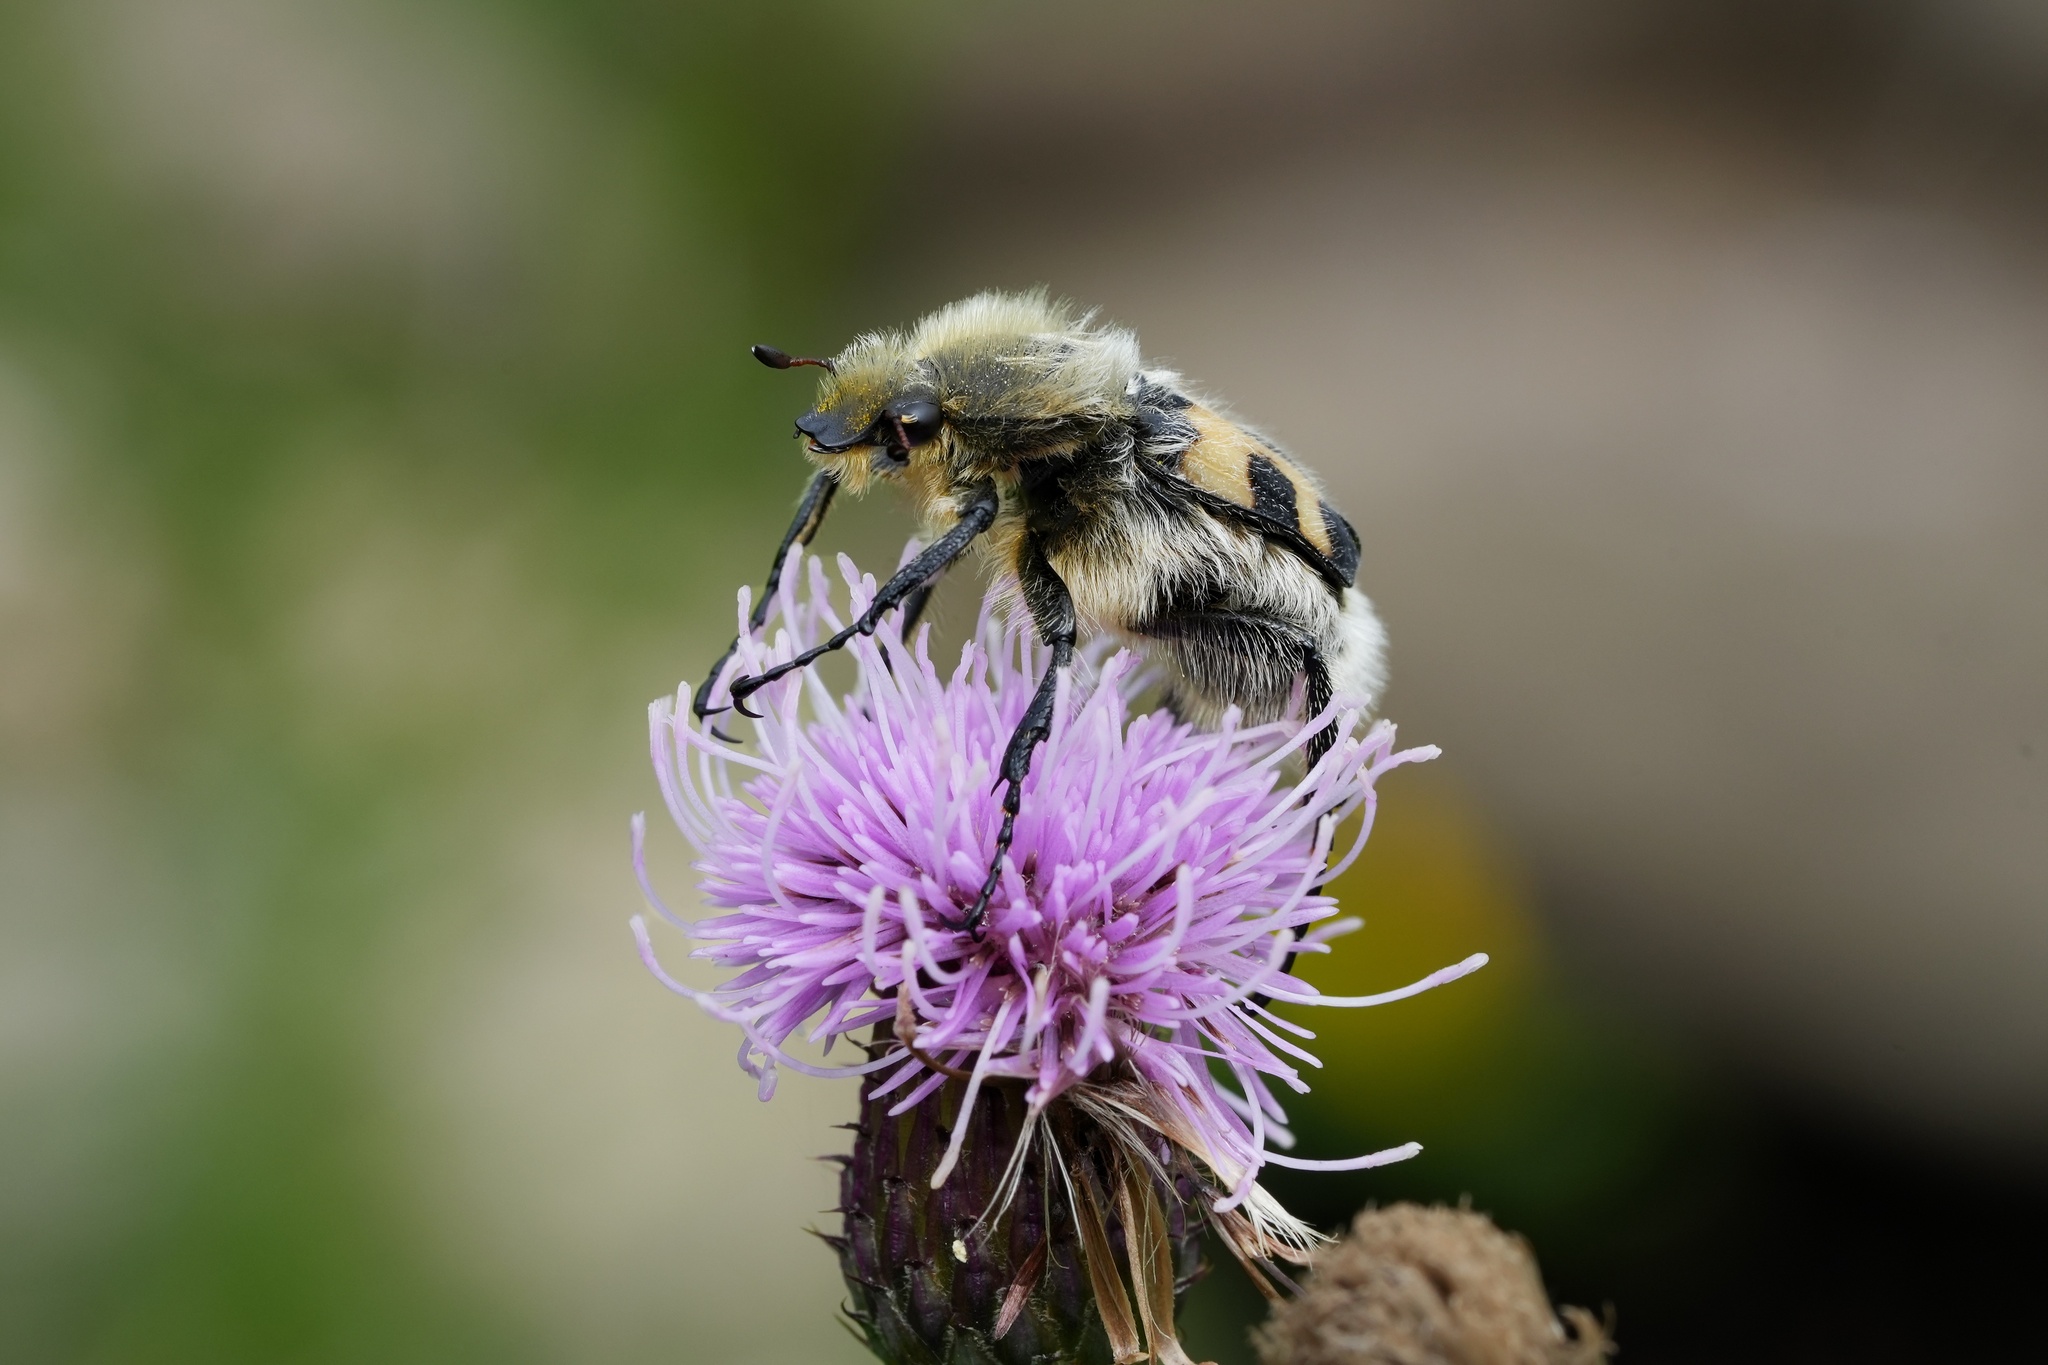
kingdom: Animalia
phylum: Arthropoda
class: Insecta
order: Coleoptera
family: Scarabaeidae
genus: Trichius
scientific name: Trichius fasciatus
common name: Bee beetle
